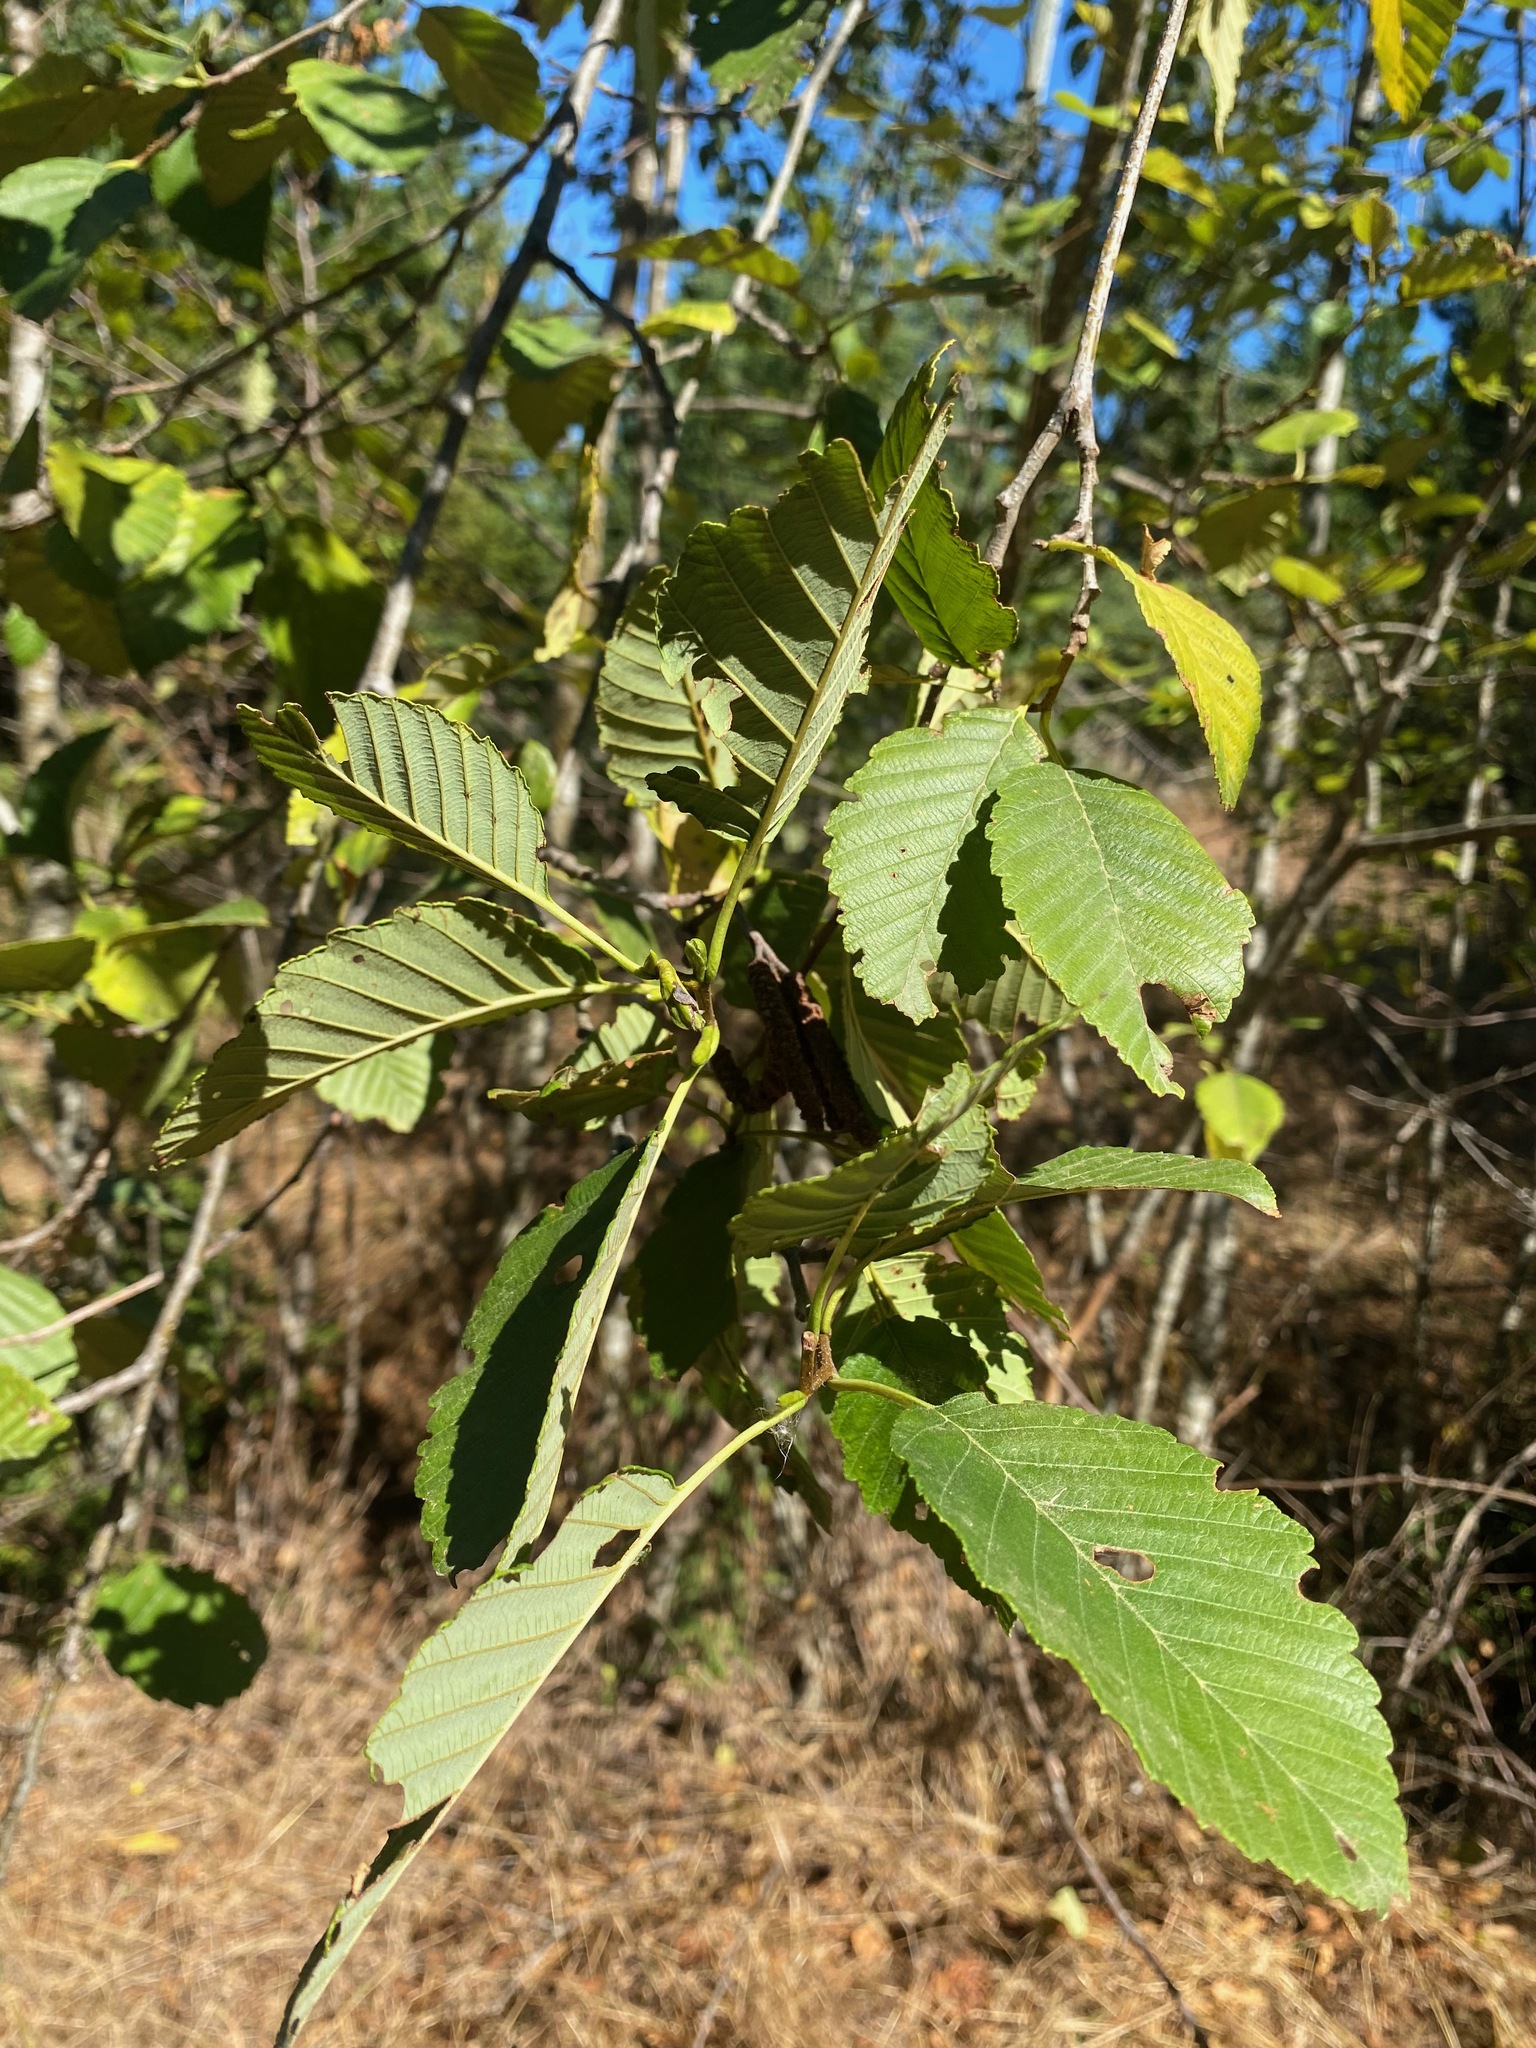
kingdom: Plantae
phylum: Tracheophyta
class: Magnoliopsida
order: Fagales
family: Betulaceae
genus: Alnus
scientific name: Alnus rubra
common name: Red alder
